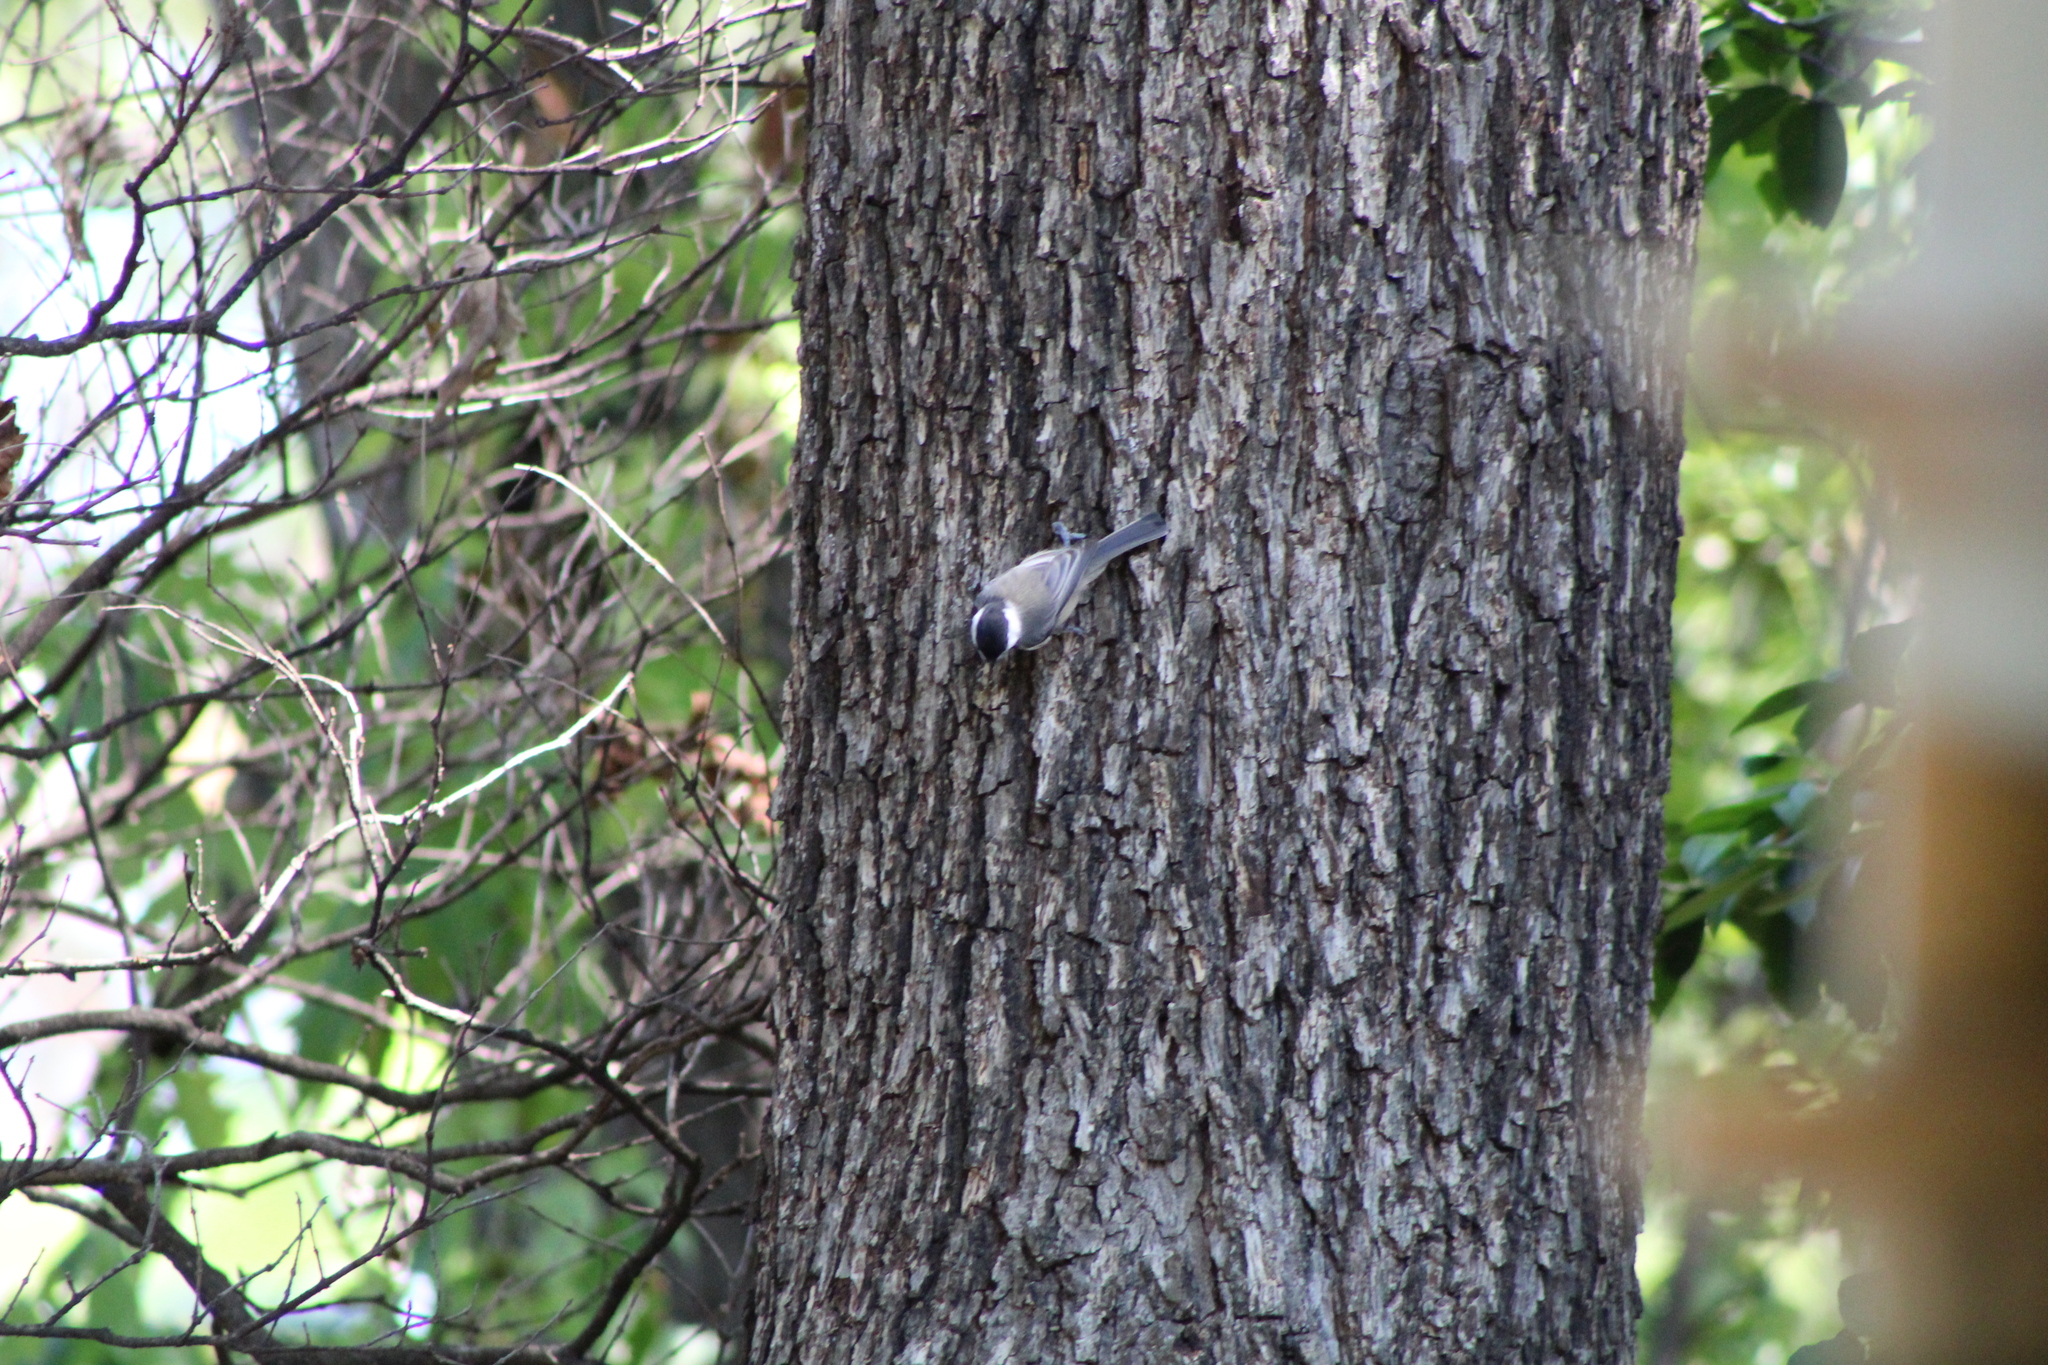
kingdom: Animalia
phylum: Chordata
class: Aves
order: Passeriformes
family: Paridae
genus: Poecile
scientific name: Poecile carolinensis
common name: Carolina chickadee
